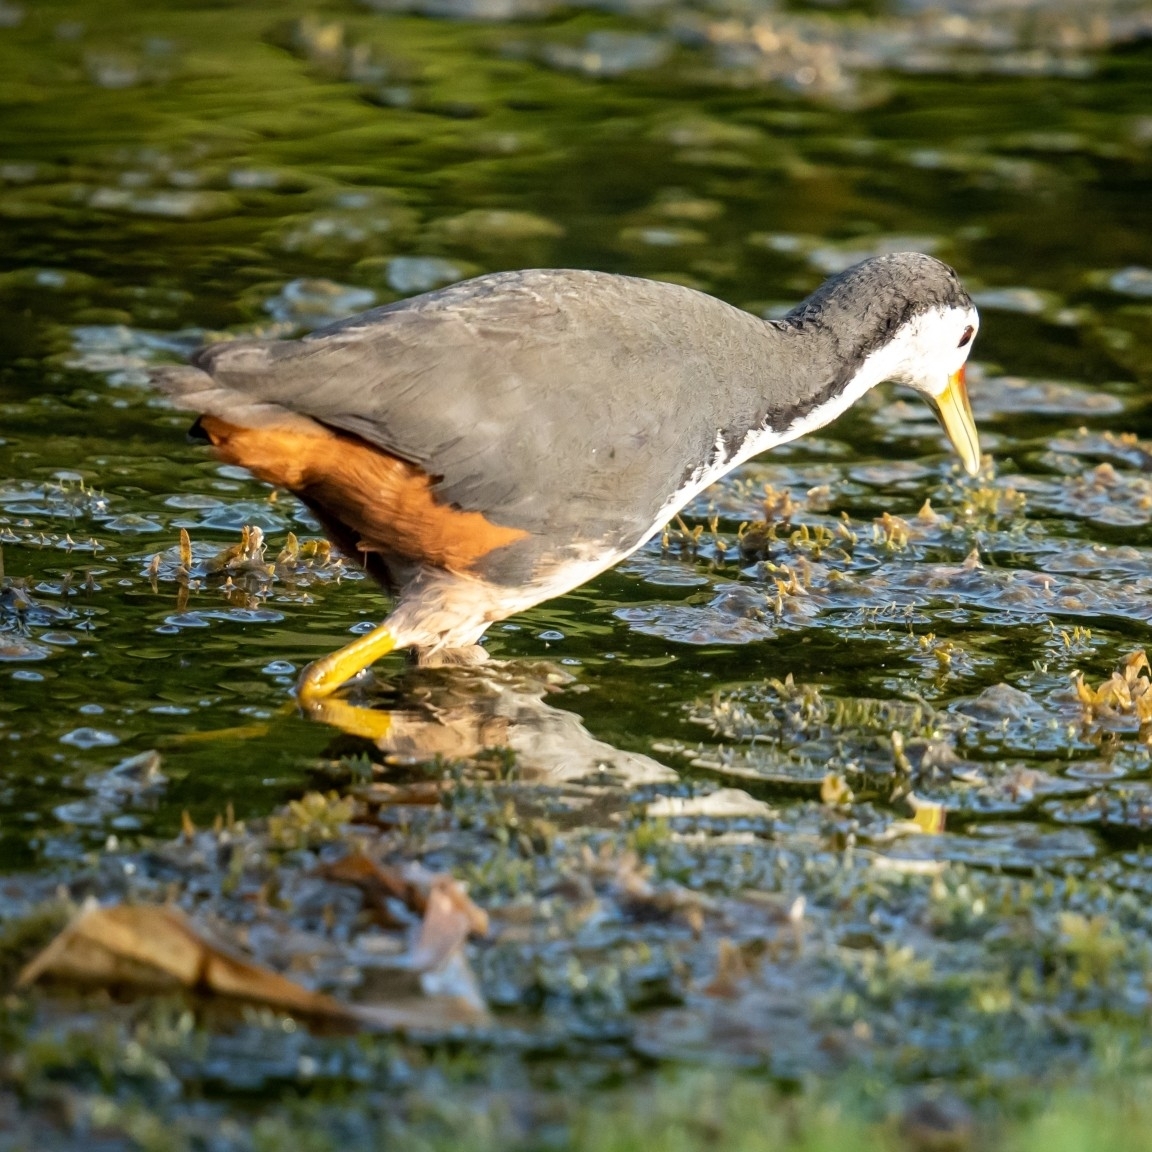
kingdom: Animalia
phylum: Chordata
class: Aves
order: Gruiformes
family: Rallidae
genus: Amaurornis
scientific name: Amaurornis phoenicurus
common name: White-breasted waterhen
